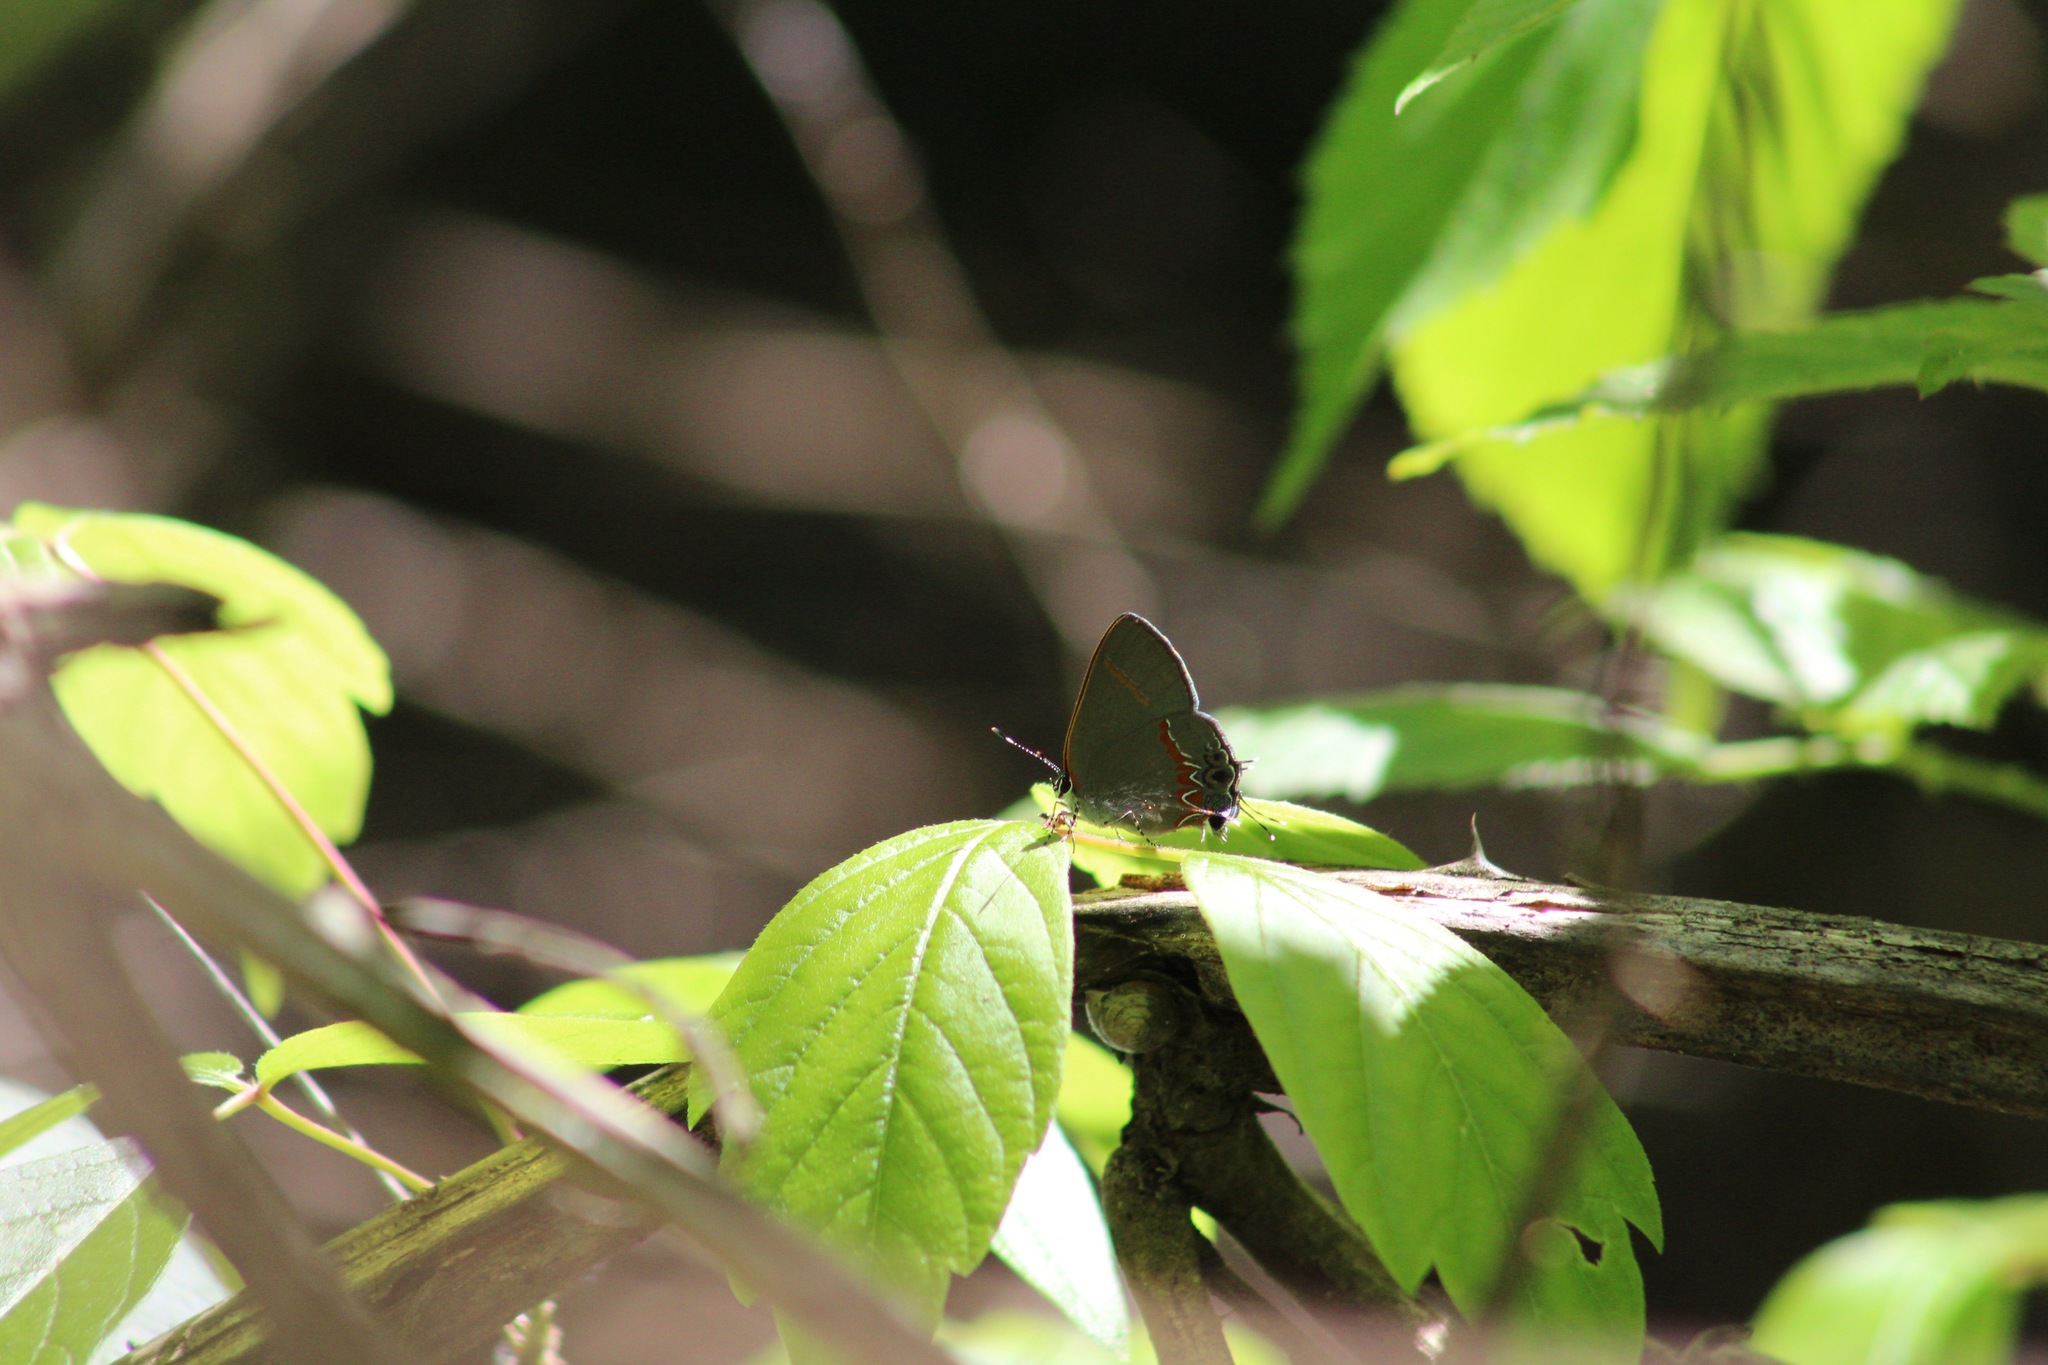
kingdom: Animalia
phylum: Arthropoda
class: Insecta
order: Lepidoptera
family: Lycaenidae
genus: Calycopis
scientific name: Calycopis cecrops
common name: Red-banded hairstreak
